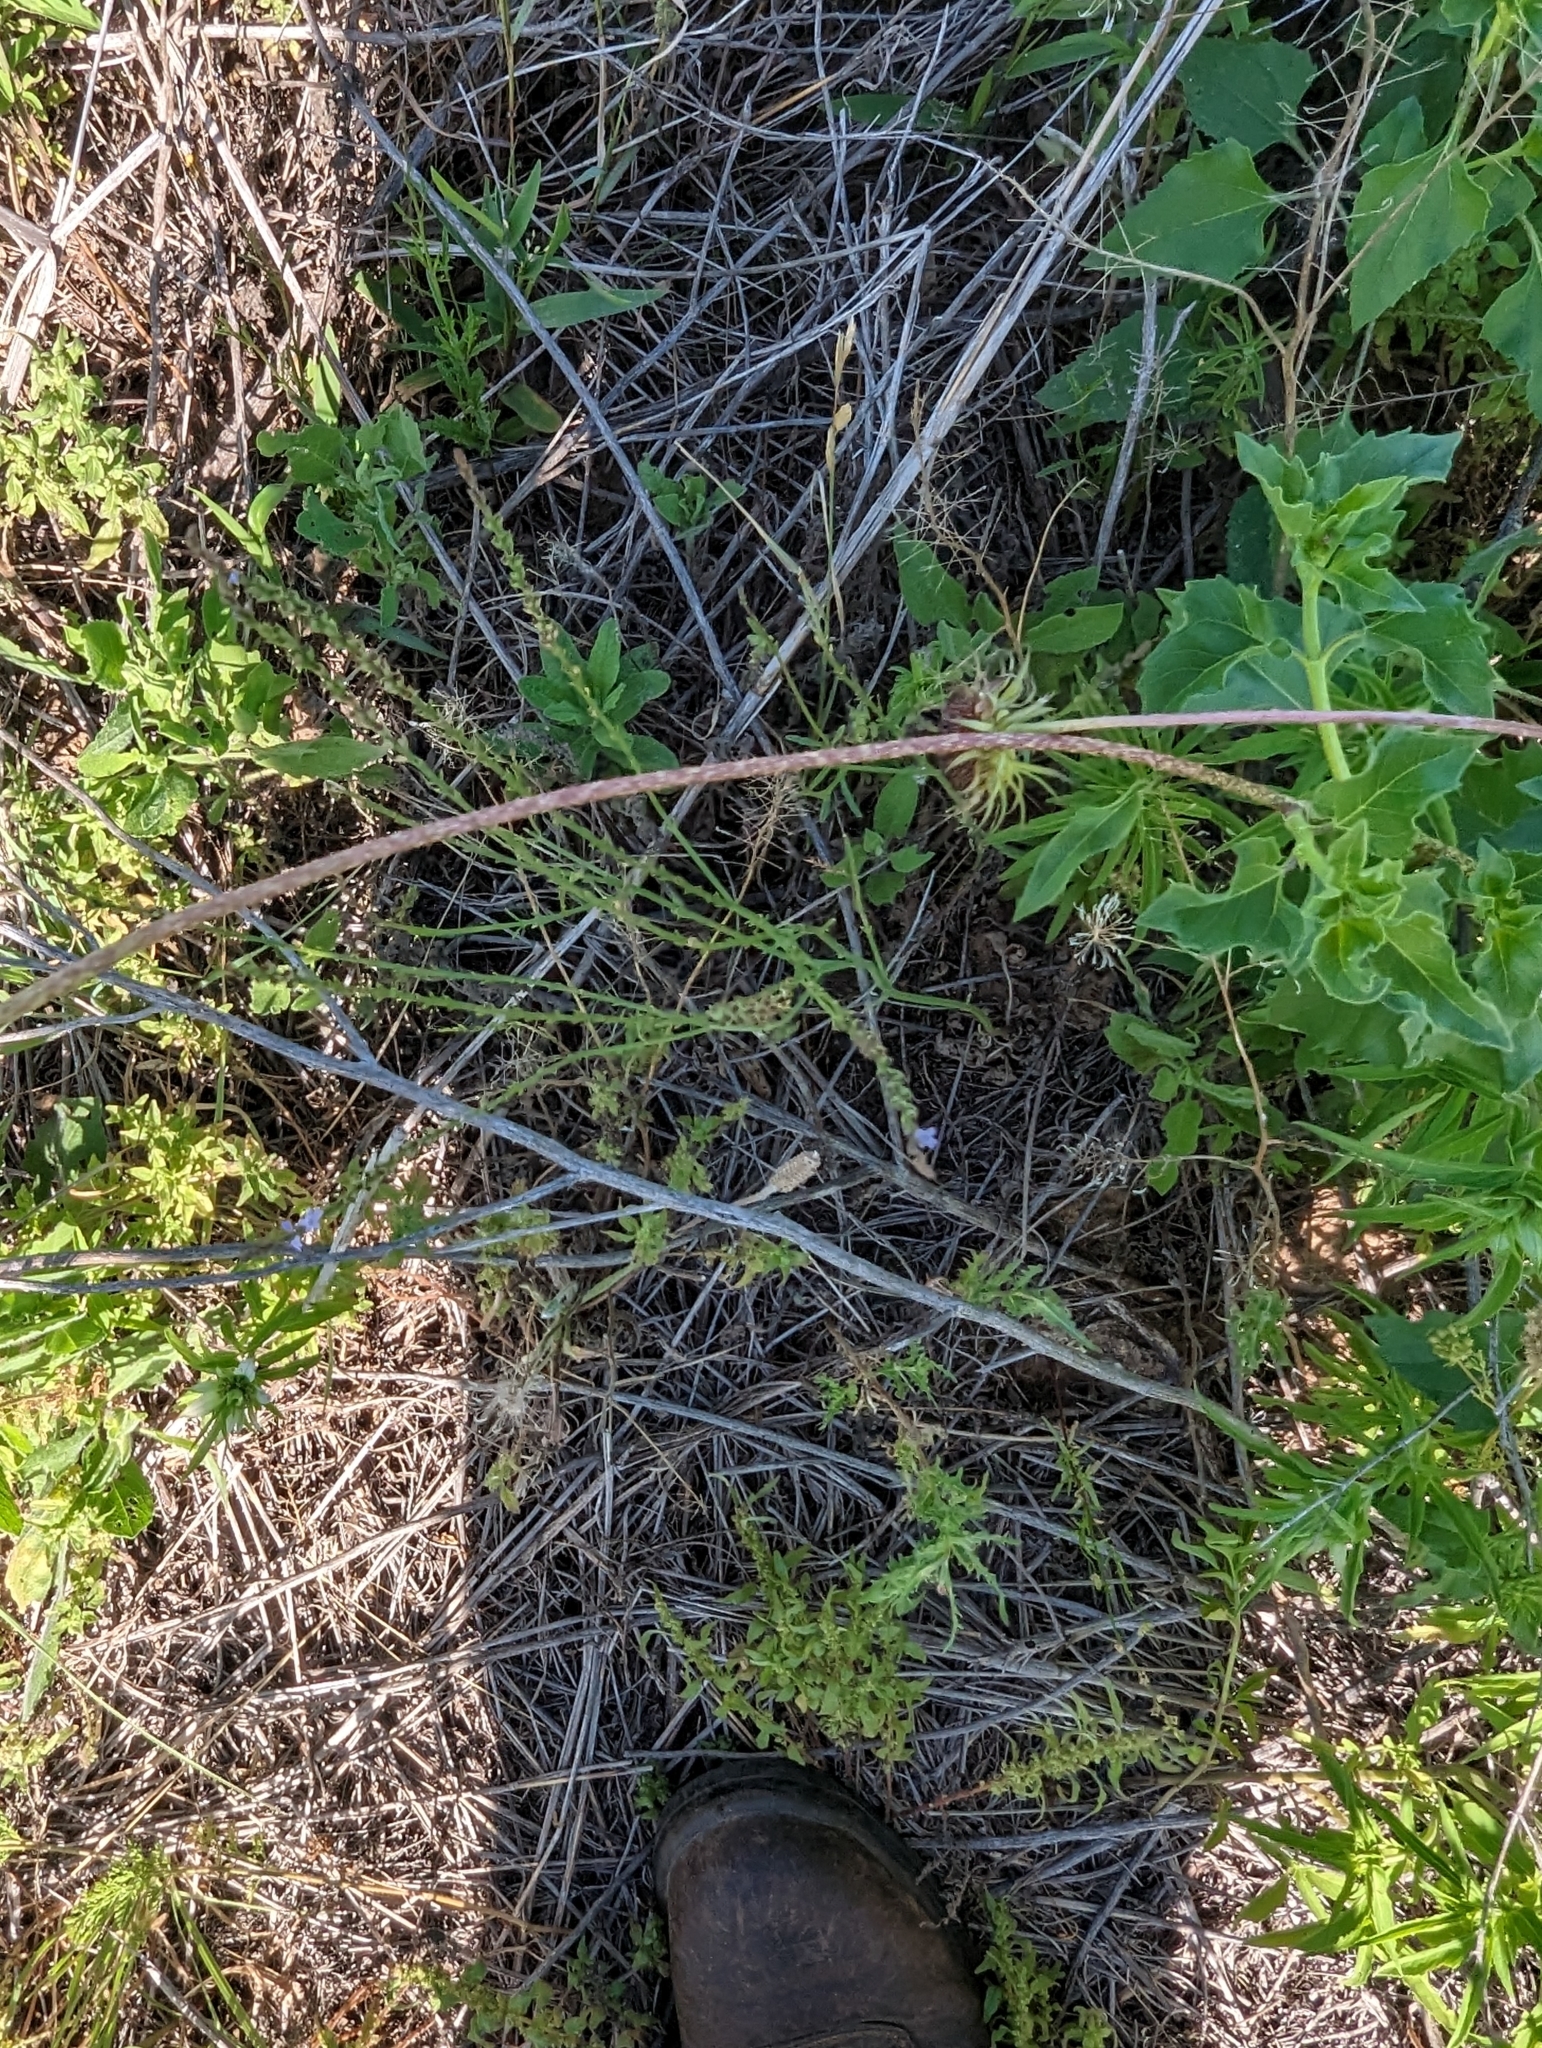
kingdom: Plantae
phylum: Tracheophyta
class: Magnoliopsida
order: Lamiales
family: Verbenaceae
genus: Verbena
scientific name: Verbena halei
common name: Texas vervain
